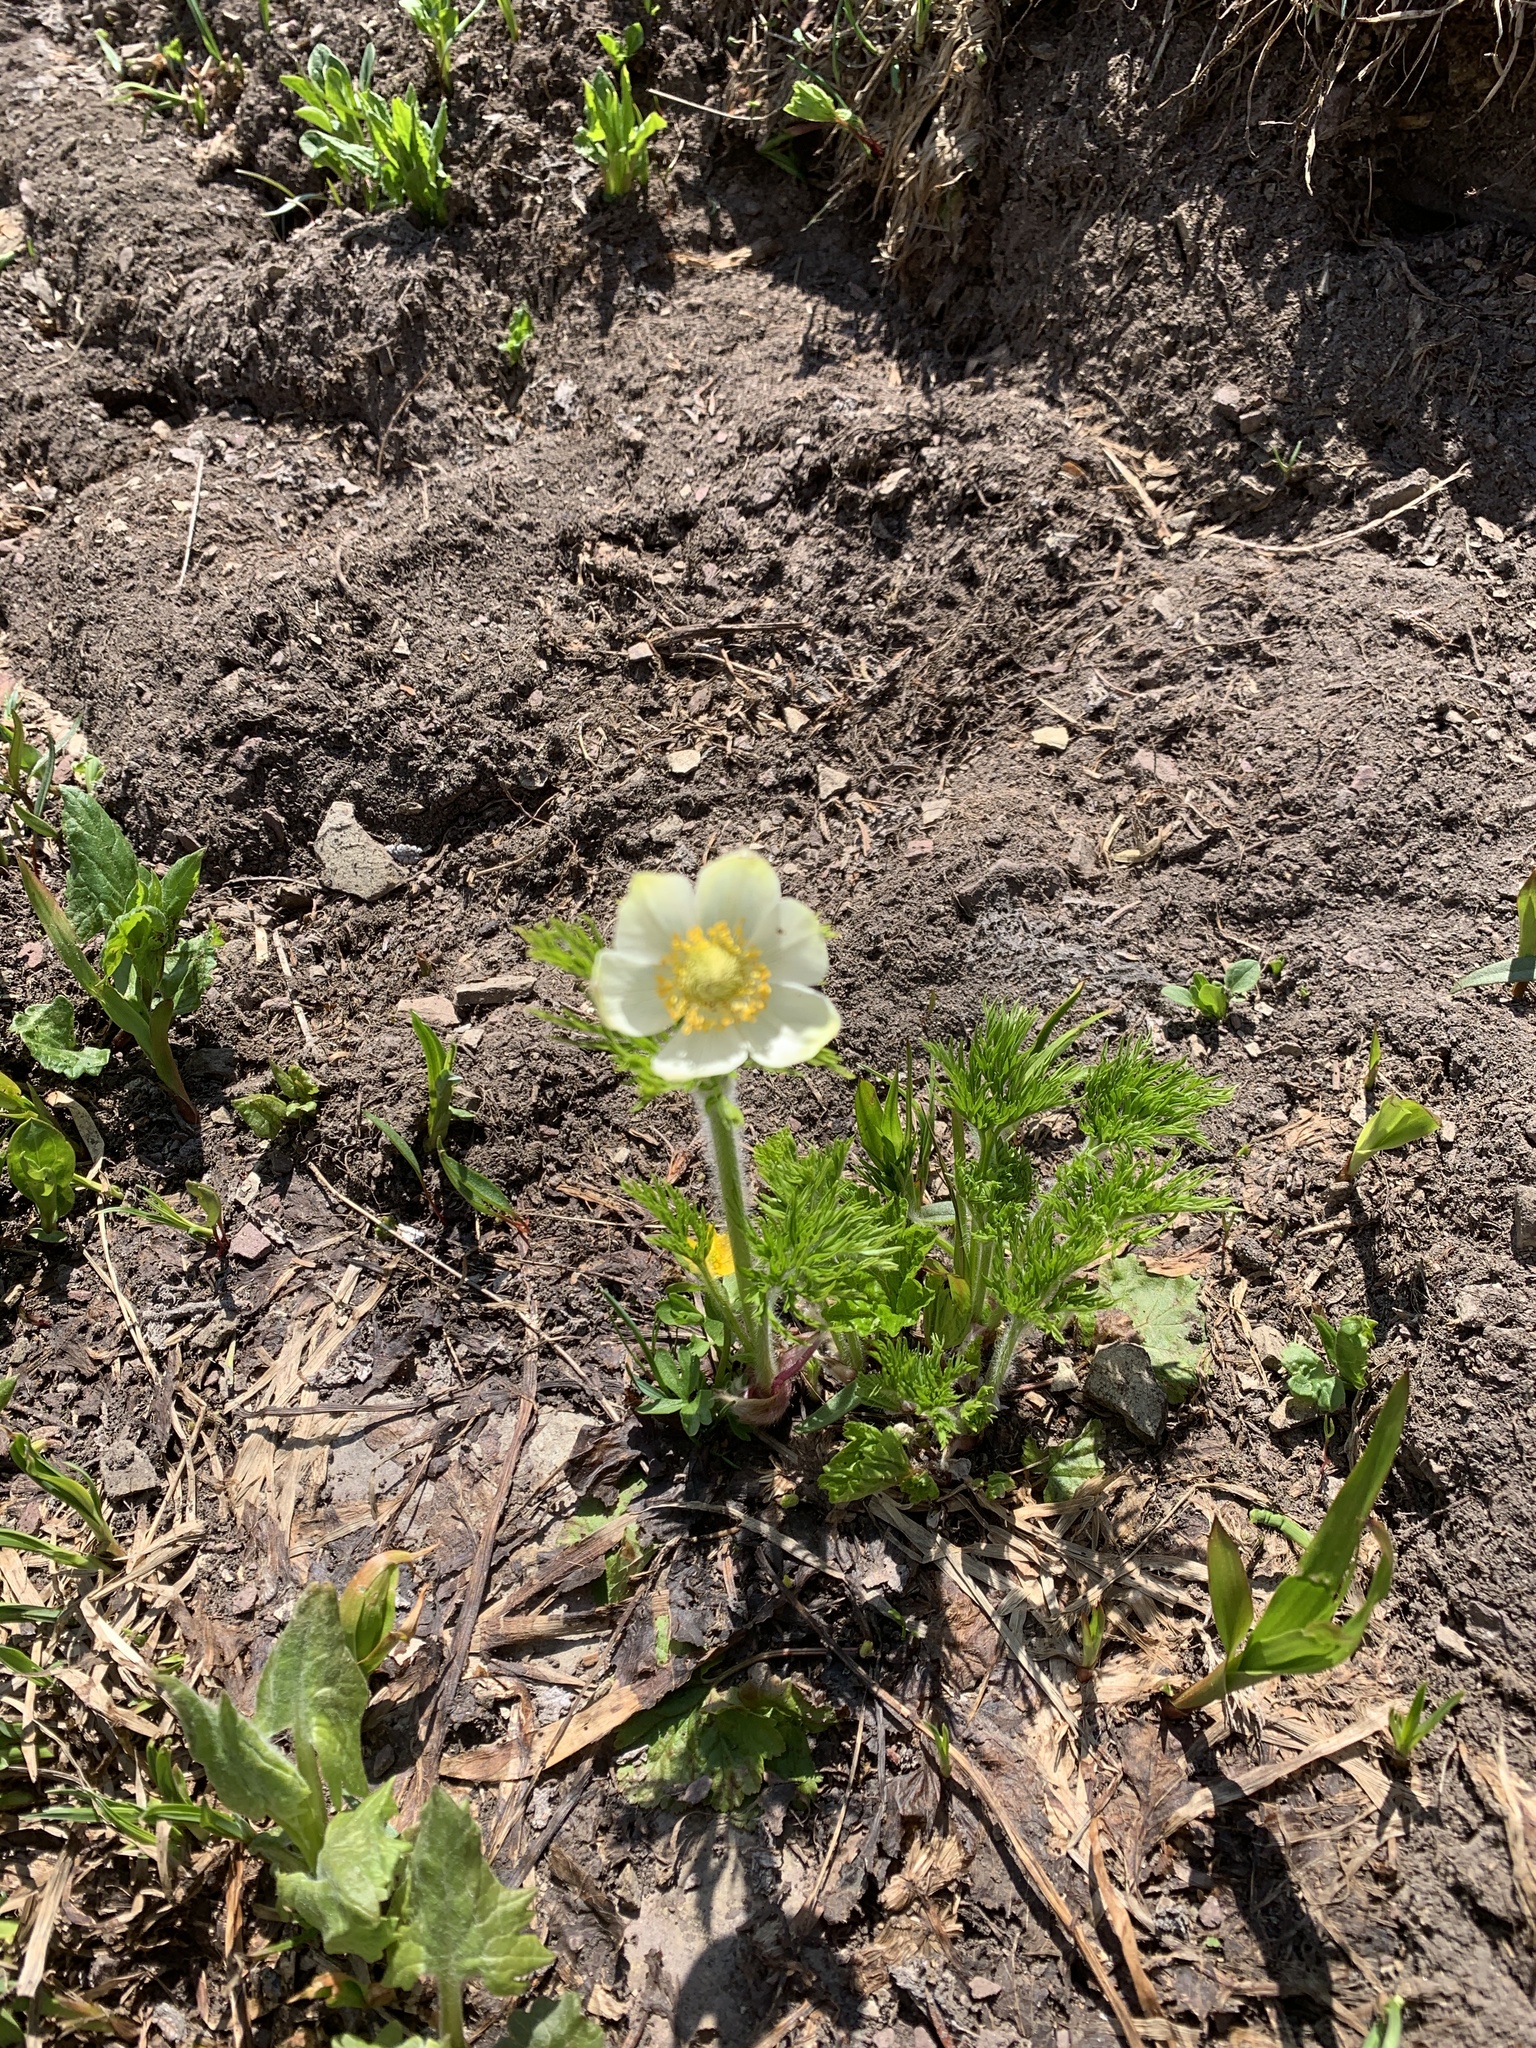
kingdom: Plantae
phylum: Tracheophyta
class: Magnoliopsida
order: Ranunculales
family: Ranunculaceae
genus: Pulsatilla
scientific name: Pulsatilla occidentalis
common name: Mountain pasqueflower
